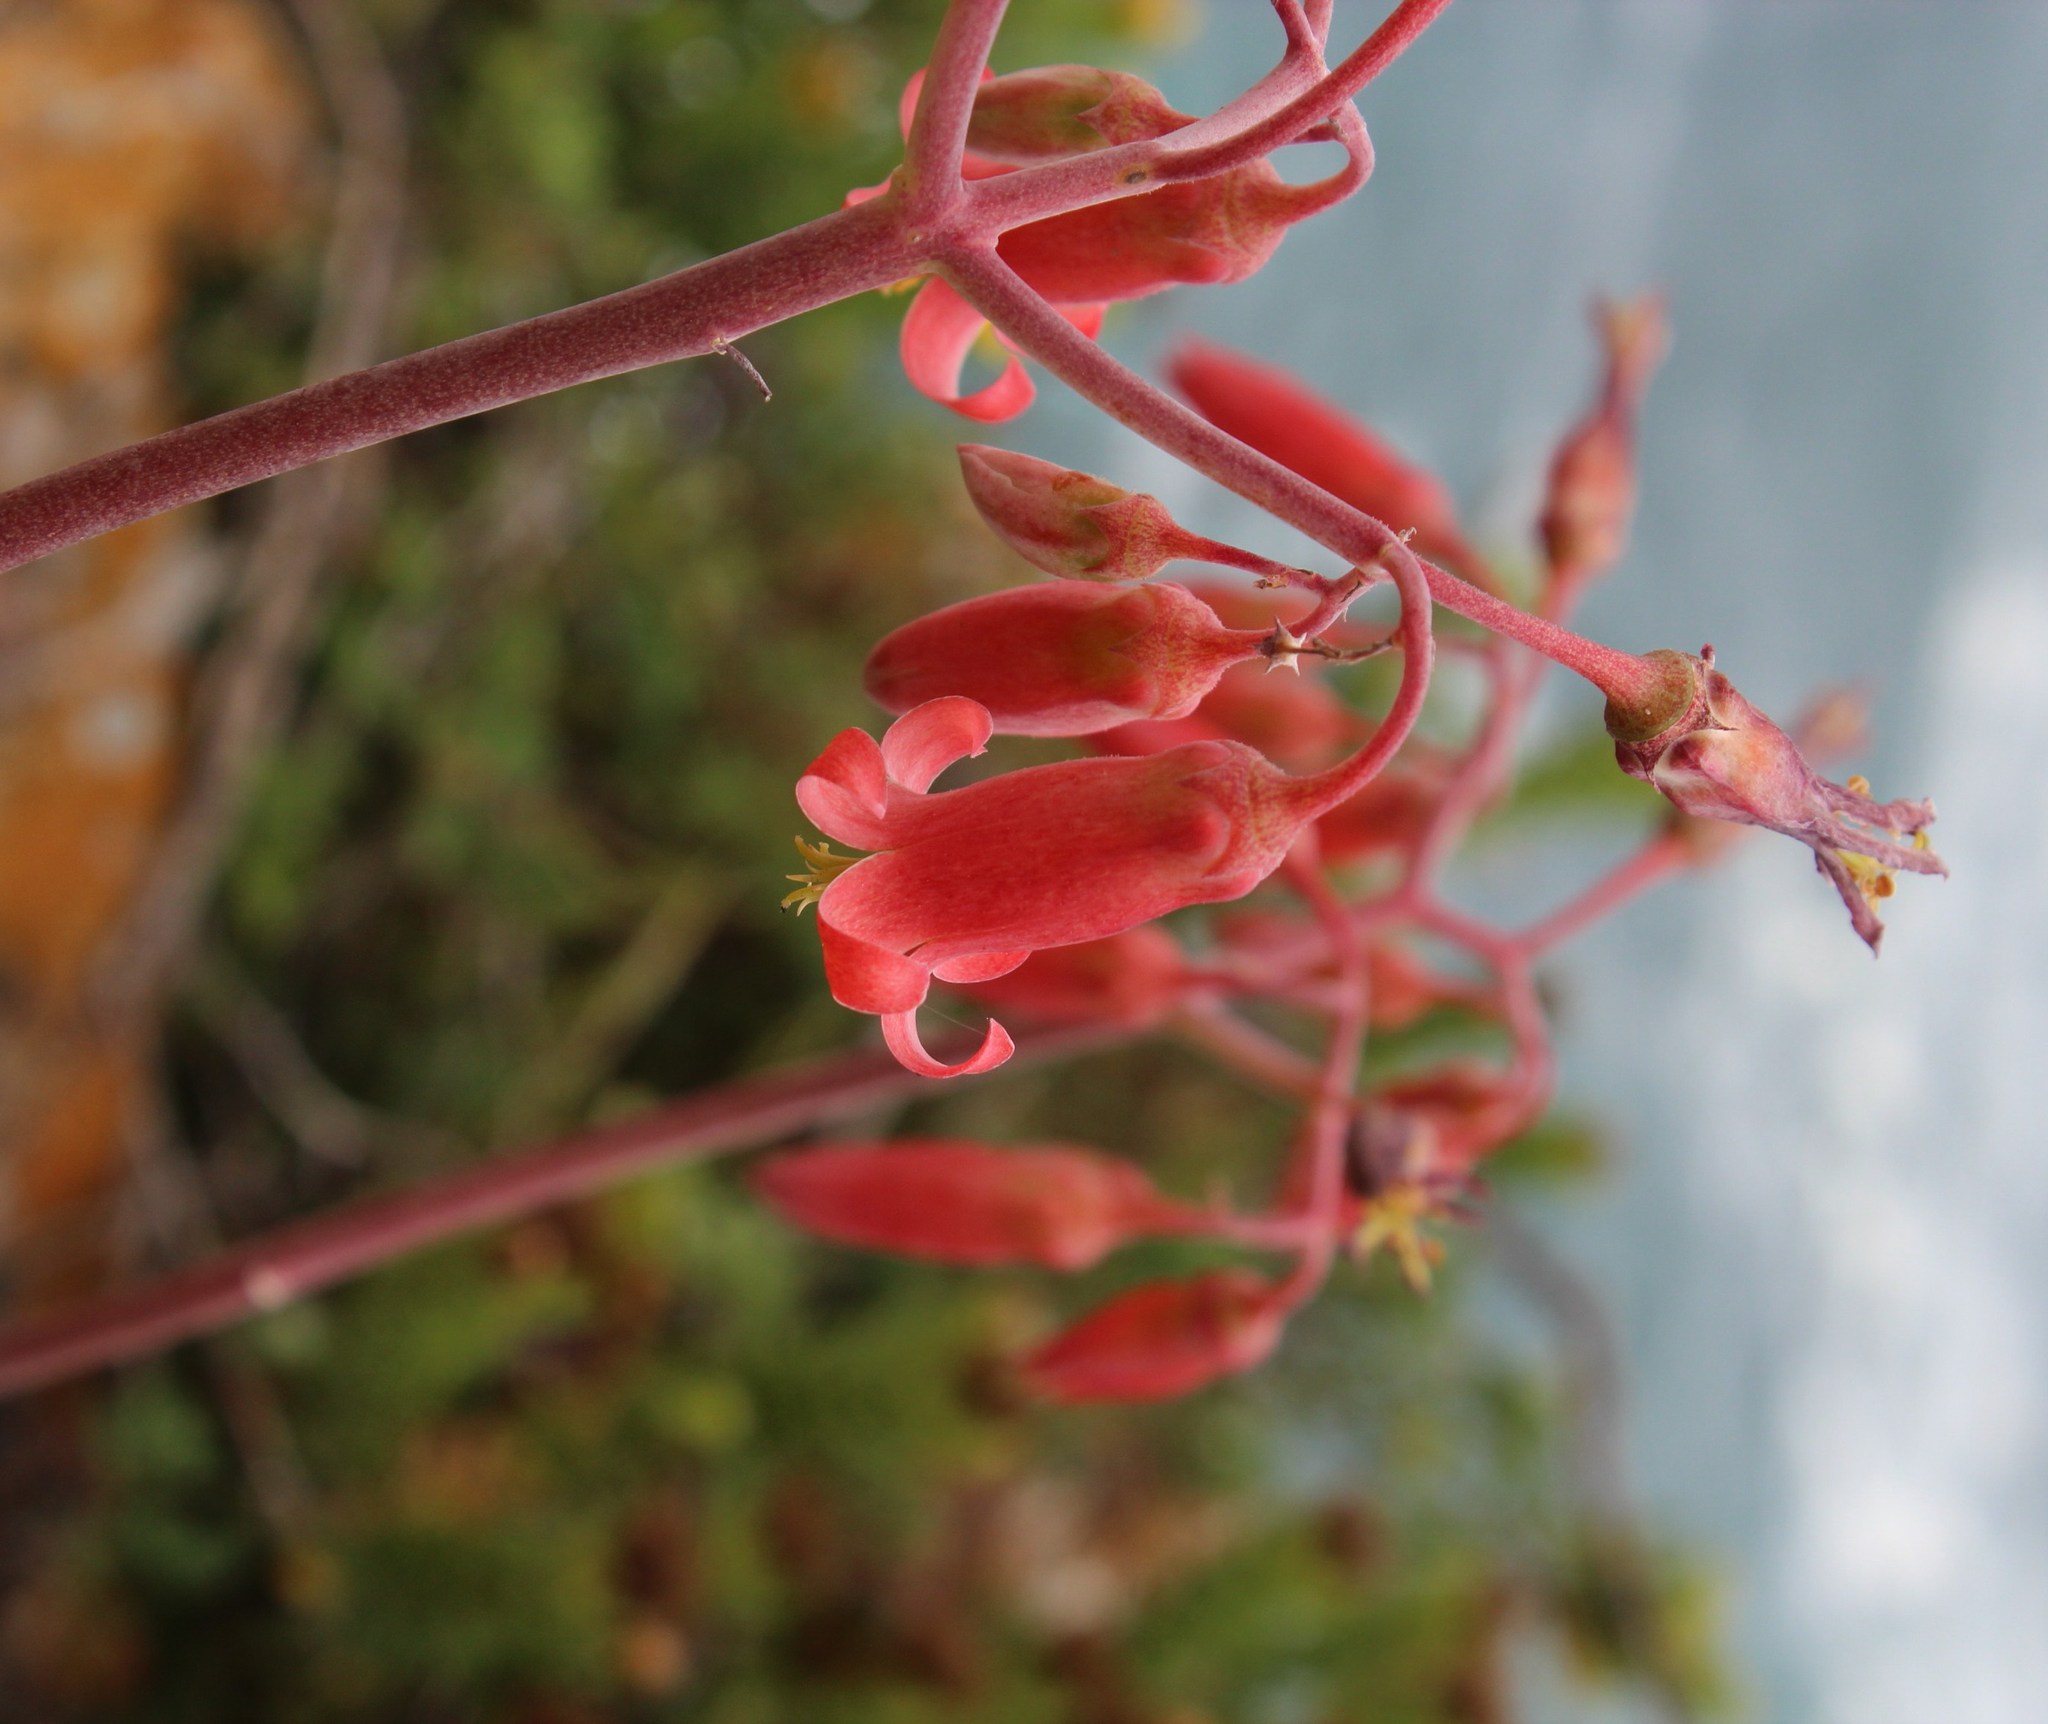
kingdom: Plantae
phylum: Tracheophyta
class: Magnoliopsida
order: Saxifragales
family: Crassulaceae
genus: Cotyledon
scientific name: Cotyledon orbiculata
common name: Pig's ear
